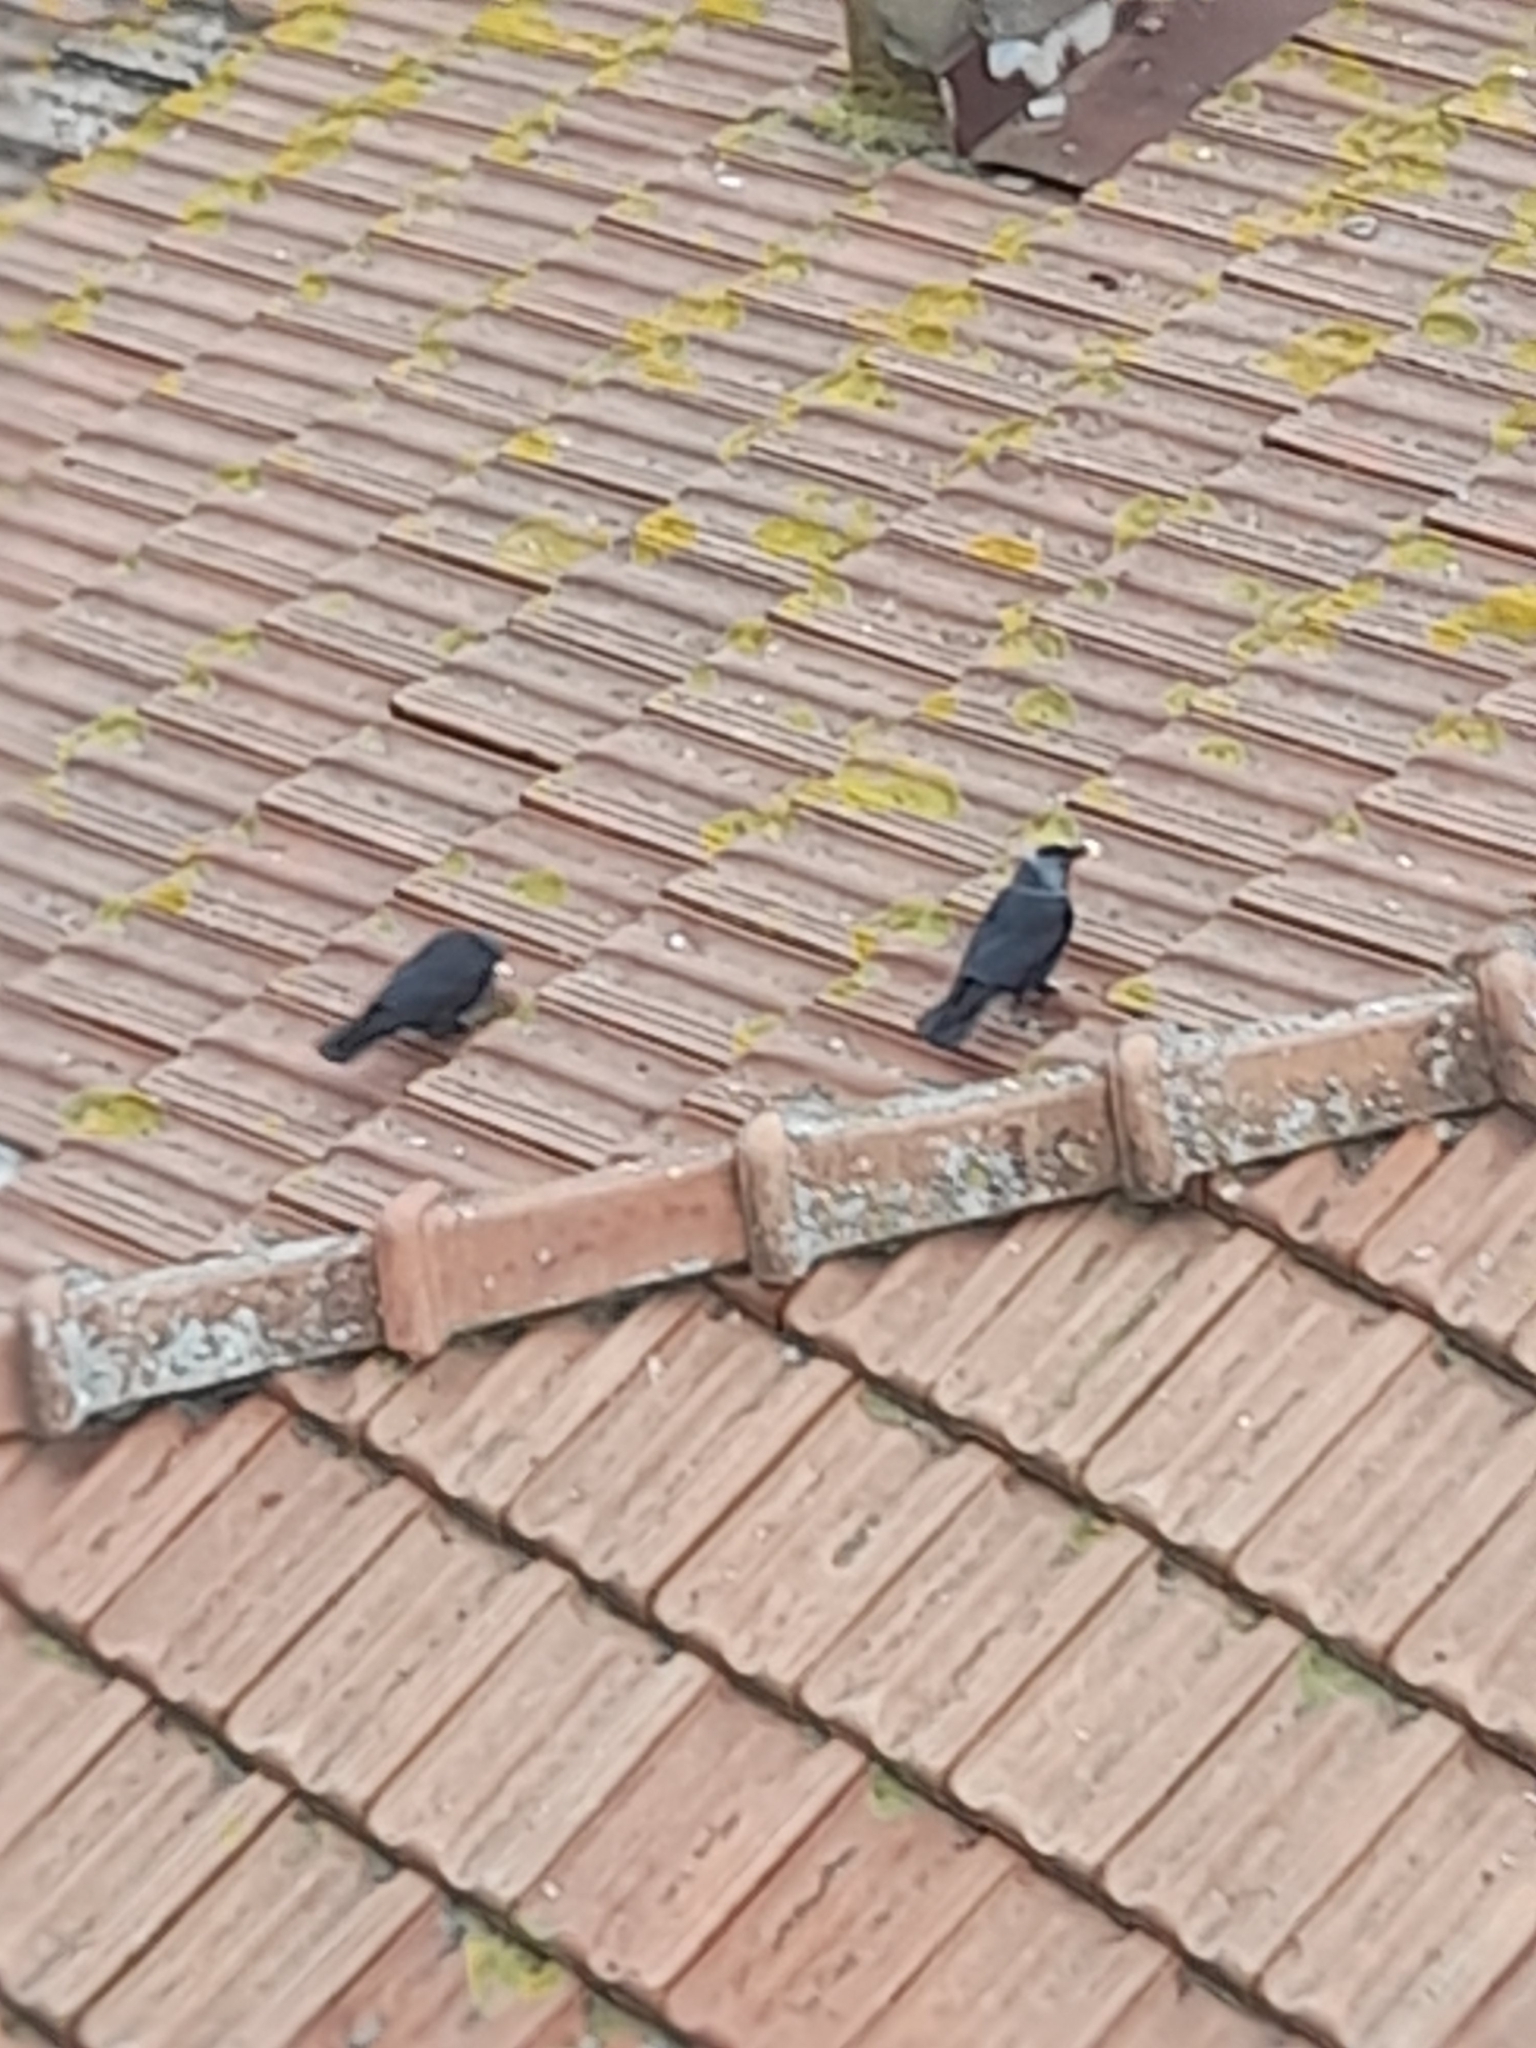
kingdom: Animalia
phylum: Chordata
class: Aves
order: Passeriformes
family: Corvidae
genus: Coloeus
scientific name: Coloeus monedula
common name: Western jackdaw
